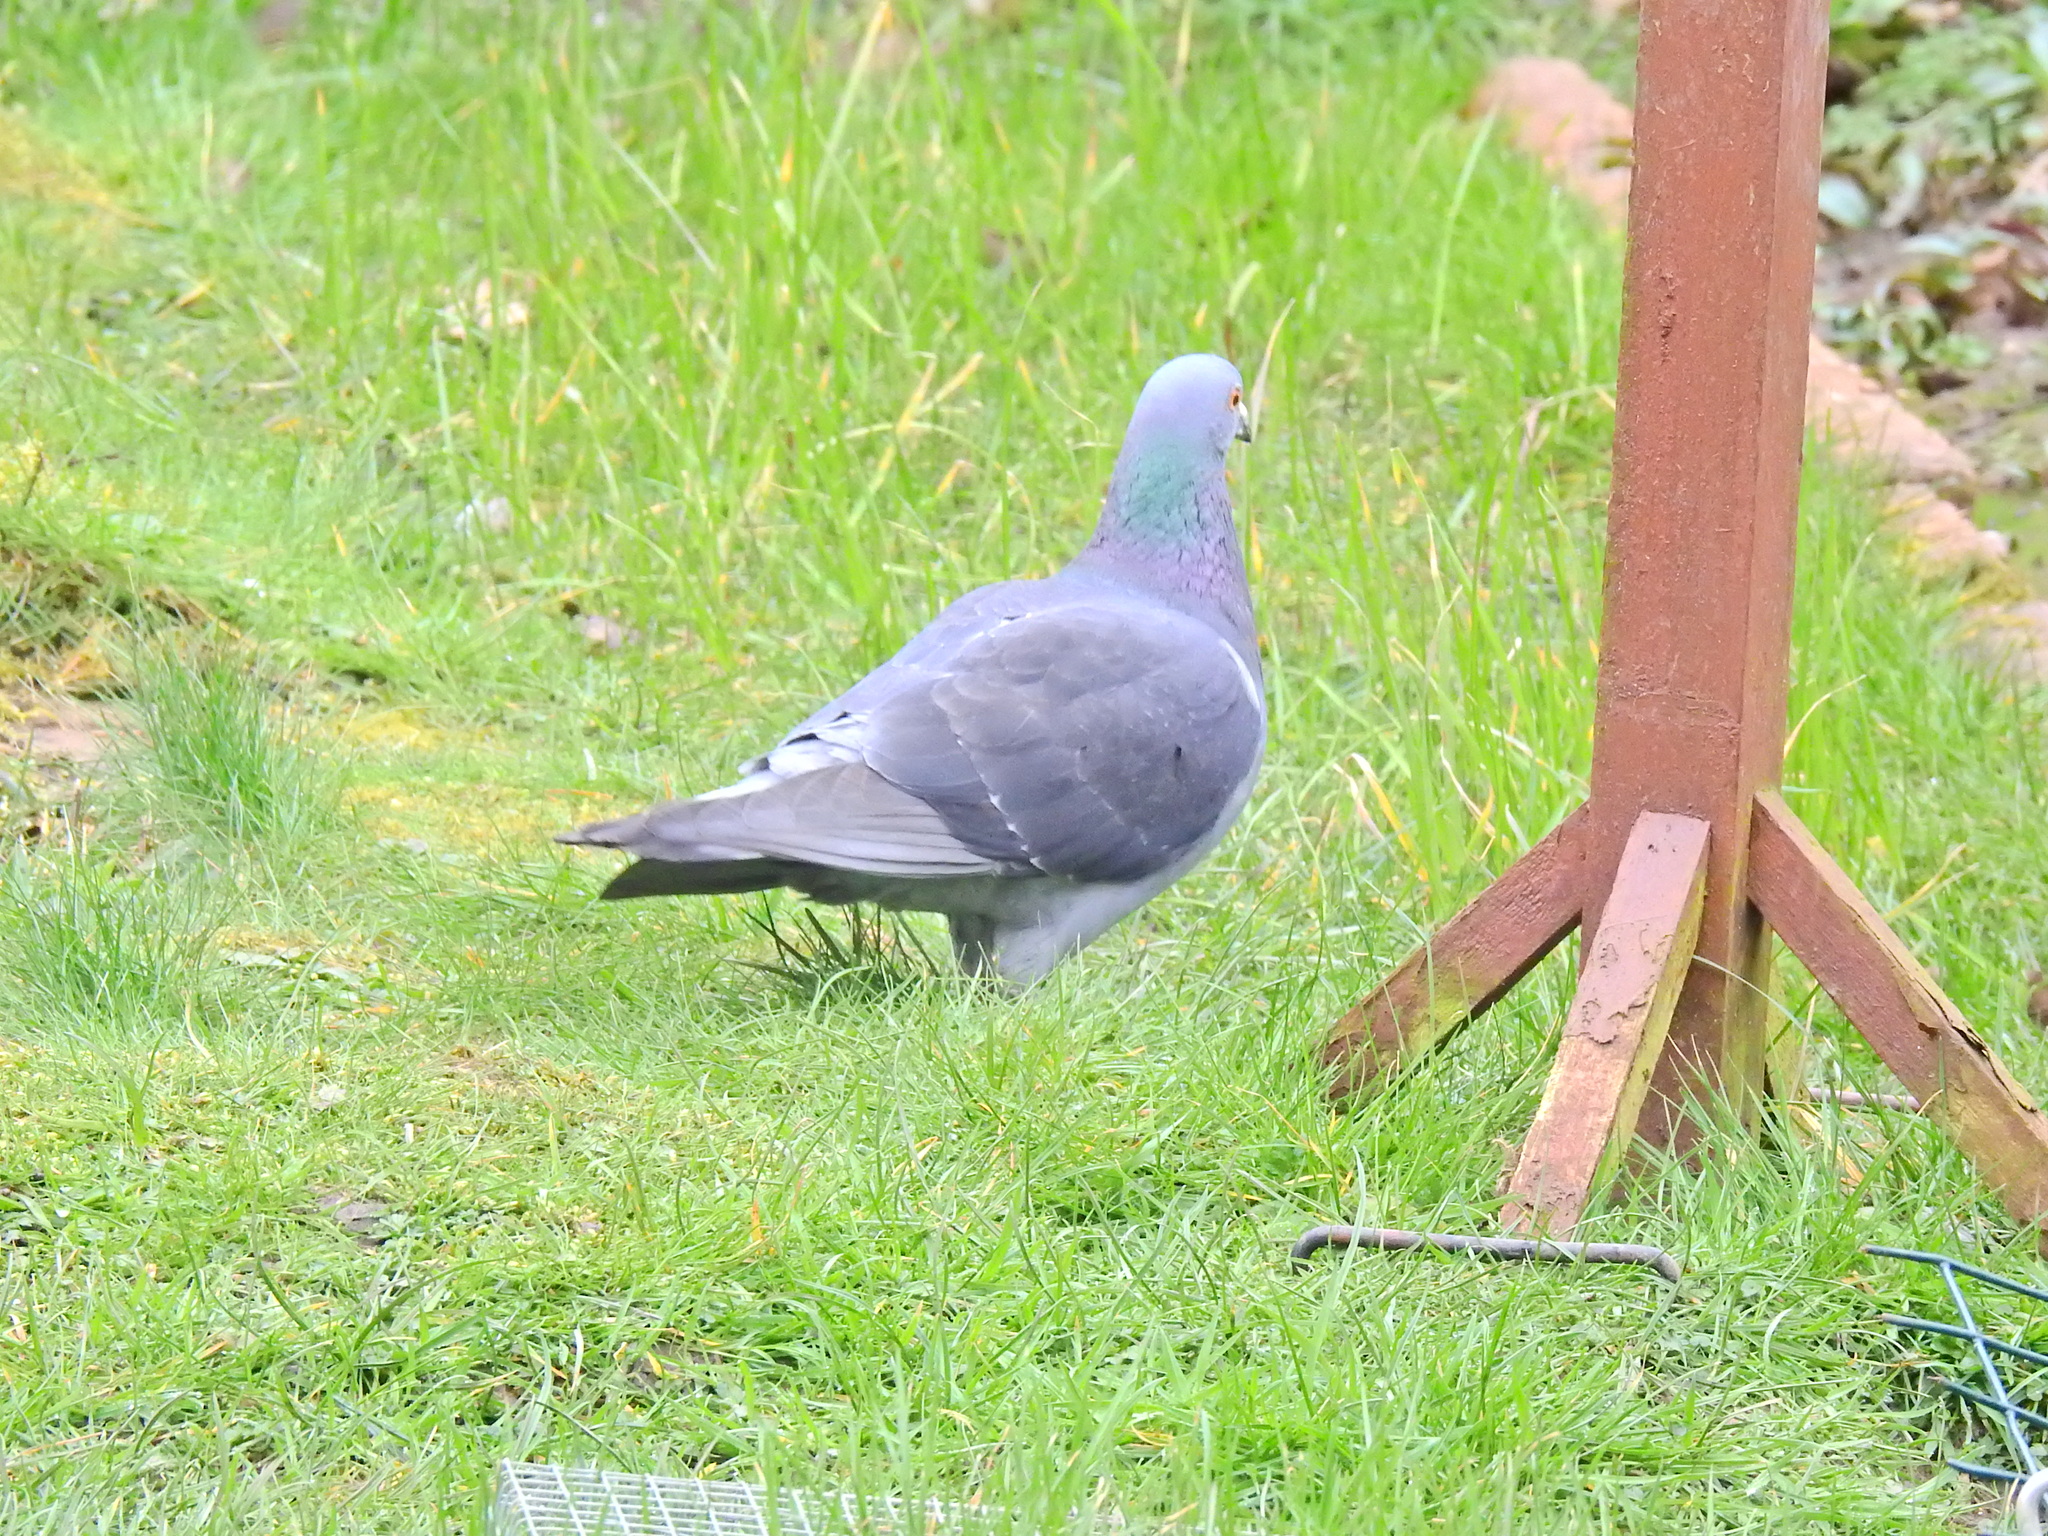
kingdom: Animalia
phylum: Chordata
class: Aves
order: Columbiformes
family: Columbidae
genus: Columba
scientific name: Columba livia
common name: Rock pigeon
